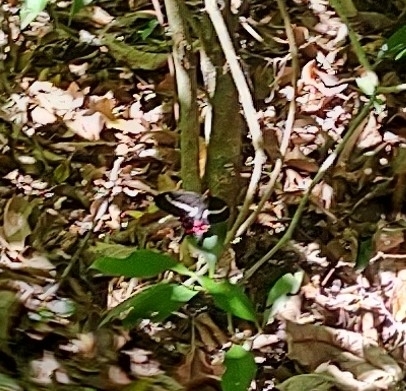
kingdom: Animalia
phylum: Arthropoda
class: Insecta
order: Lepidoptera
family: Papilionidae
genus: Parides
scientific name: Parides agavus
